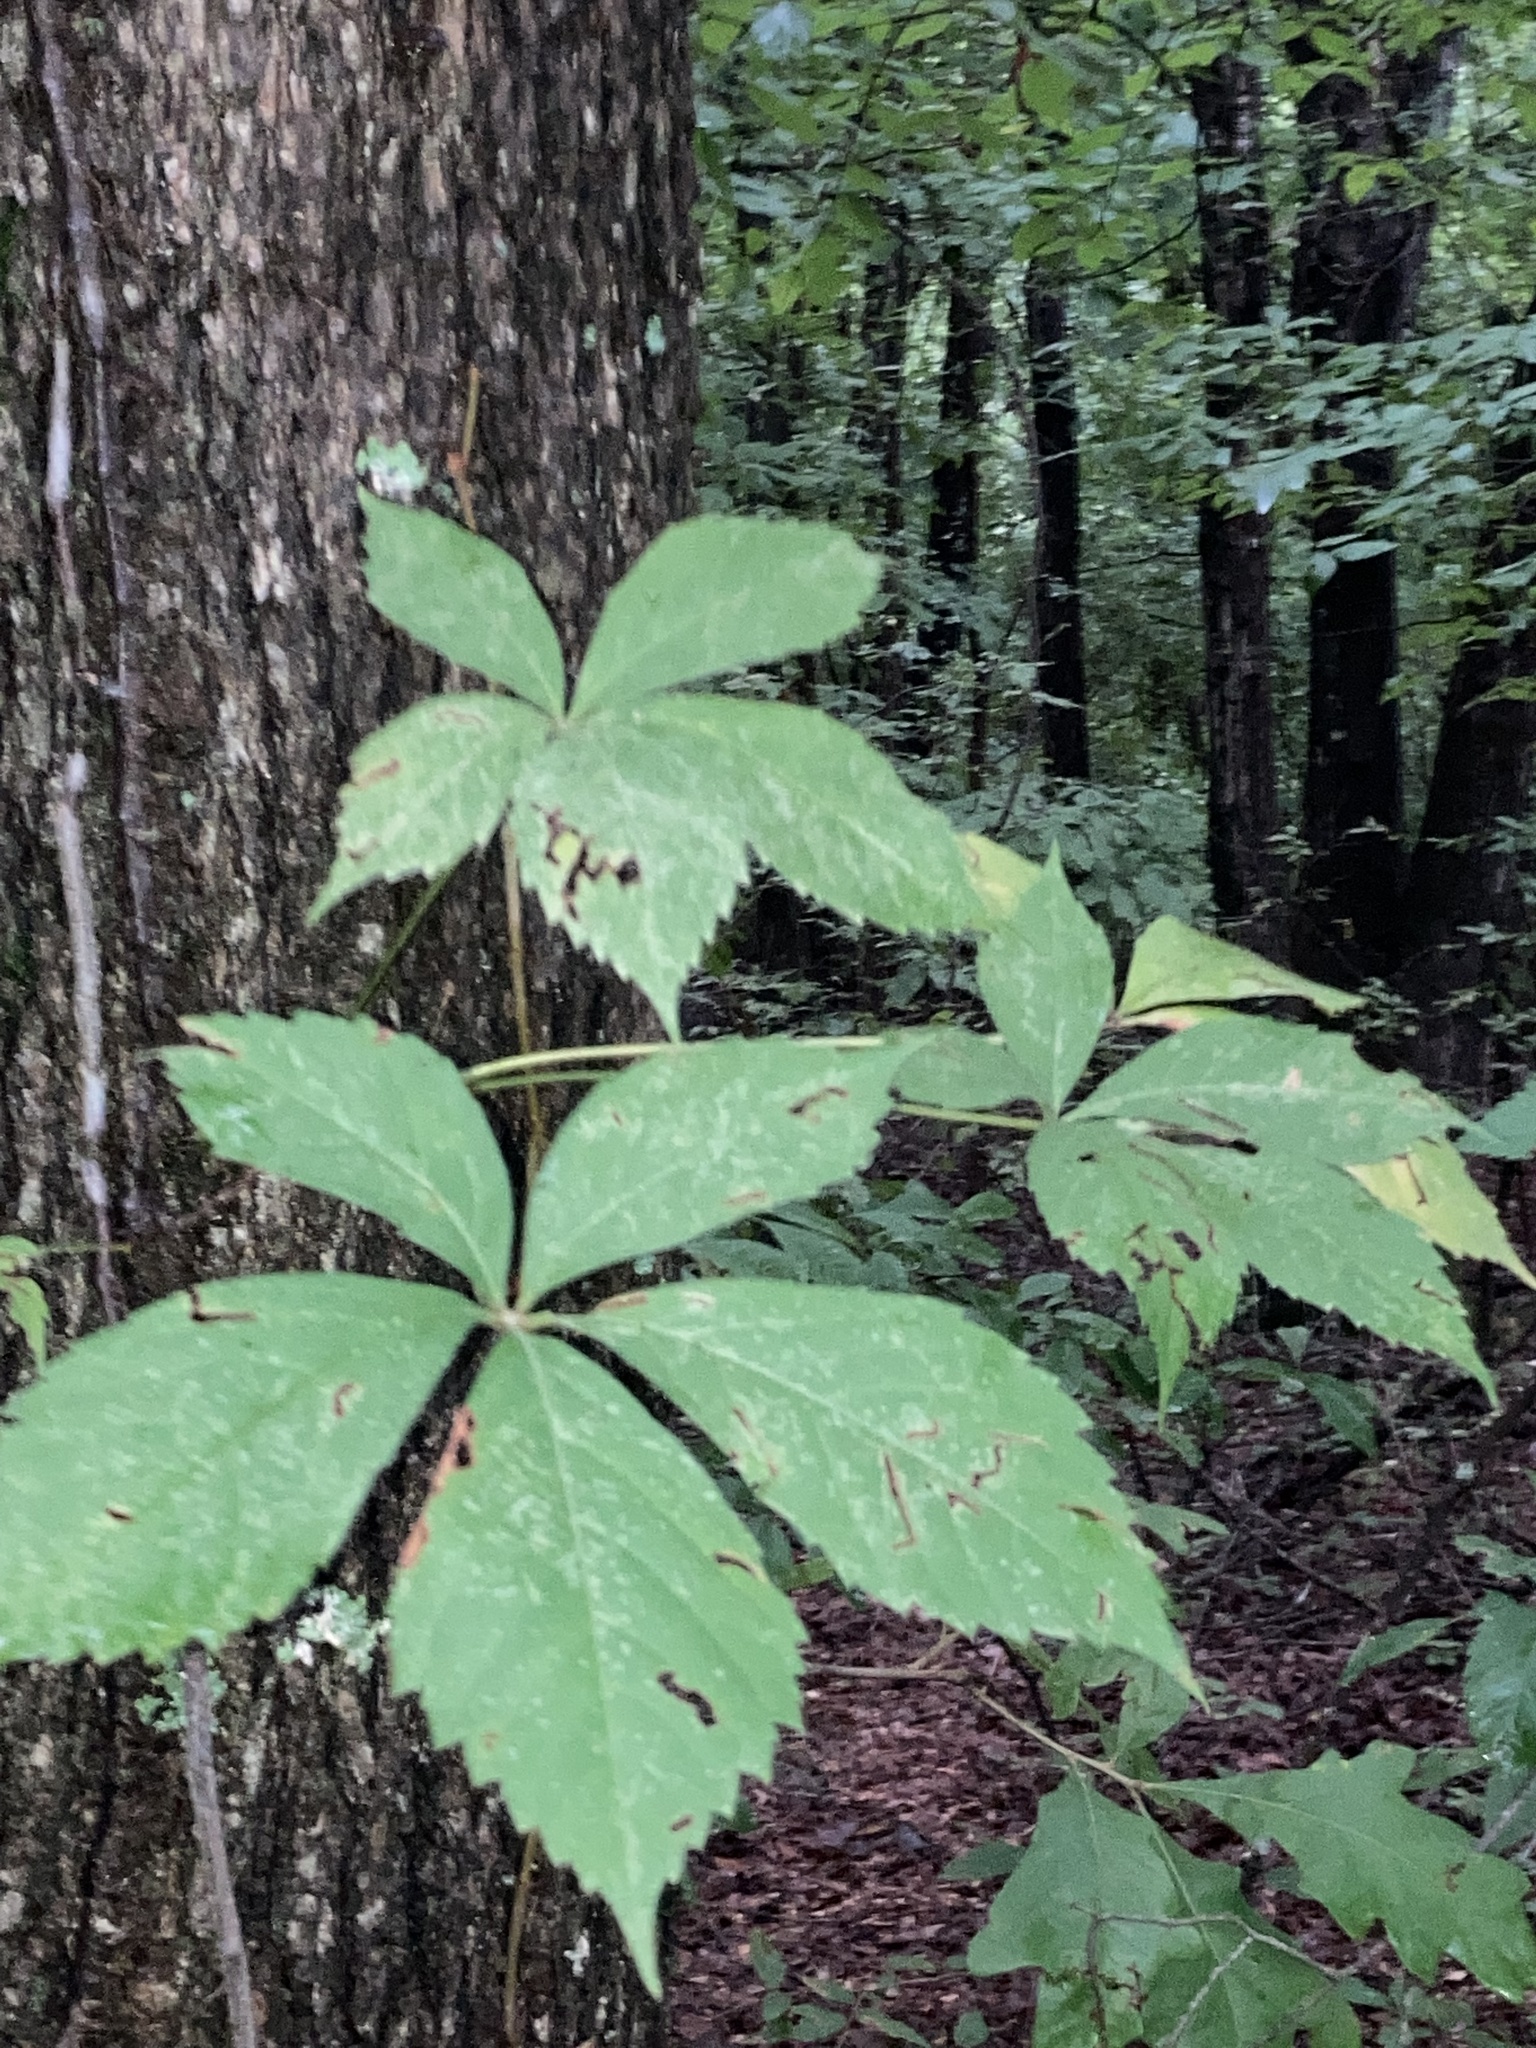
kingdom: Plantae
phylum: Tracheophyta
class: Magnoliopsida
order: Vitales
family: Vitaceae
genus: Parthenocissus
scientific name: Parthenocissus quinquefolia
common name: Virginia-creeper
